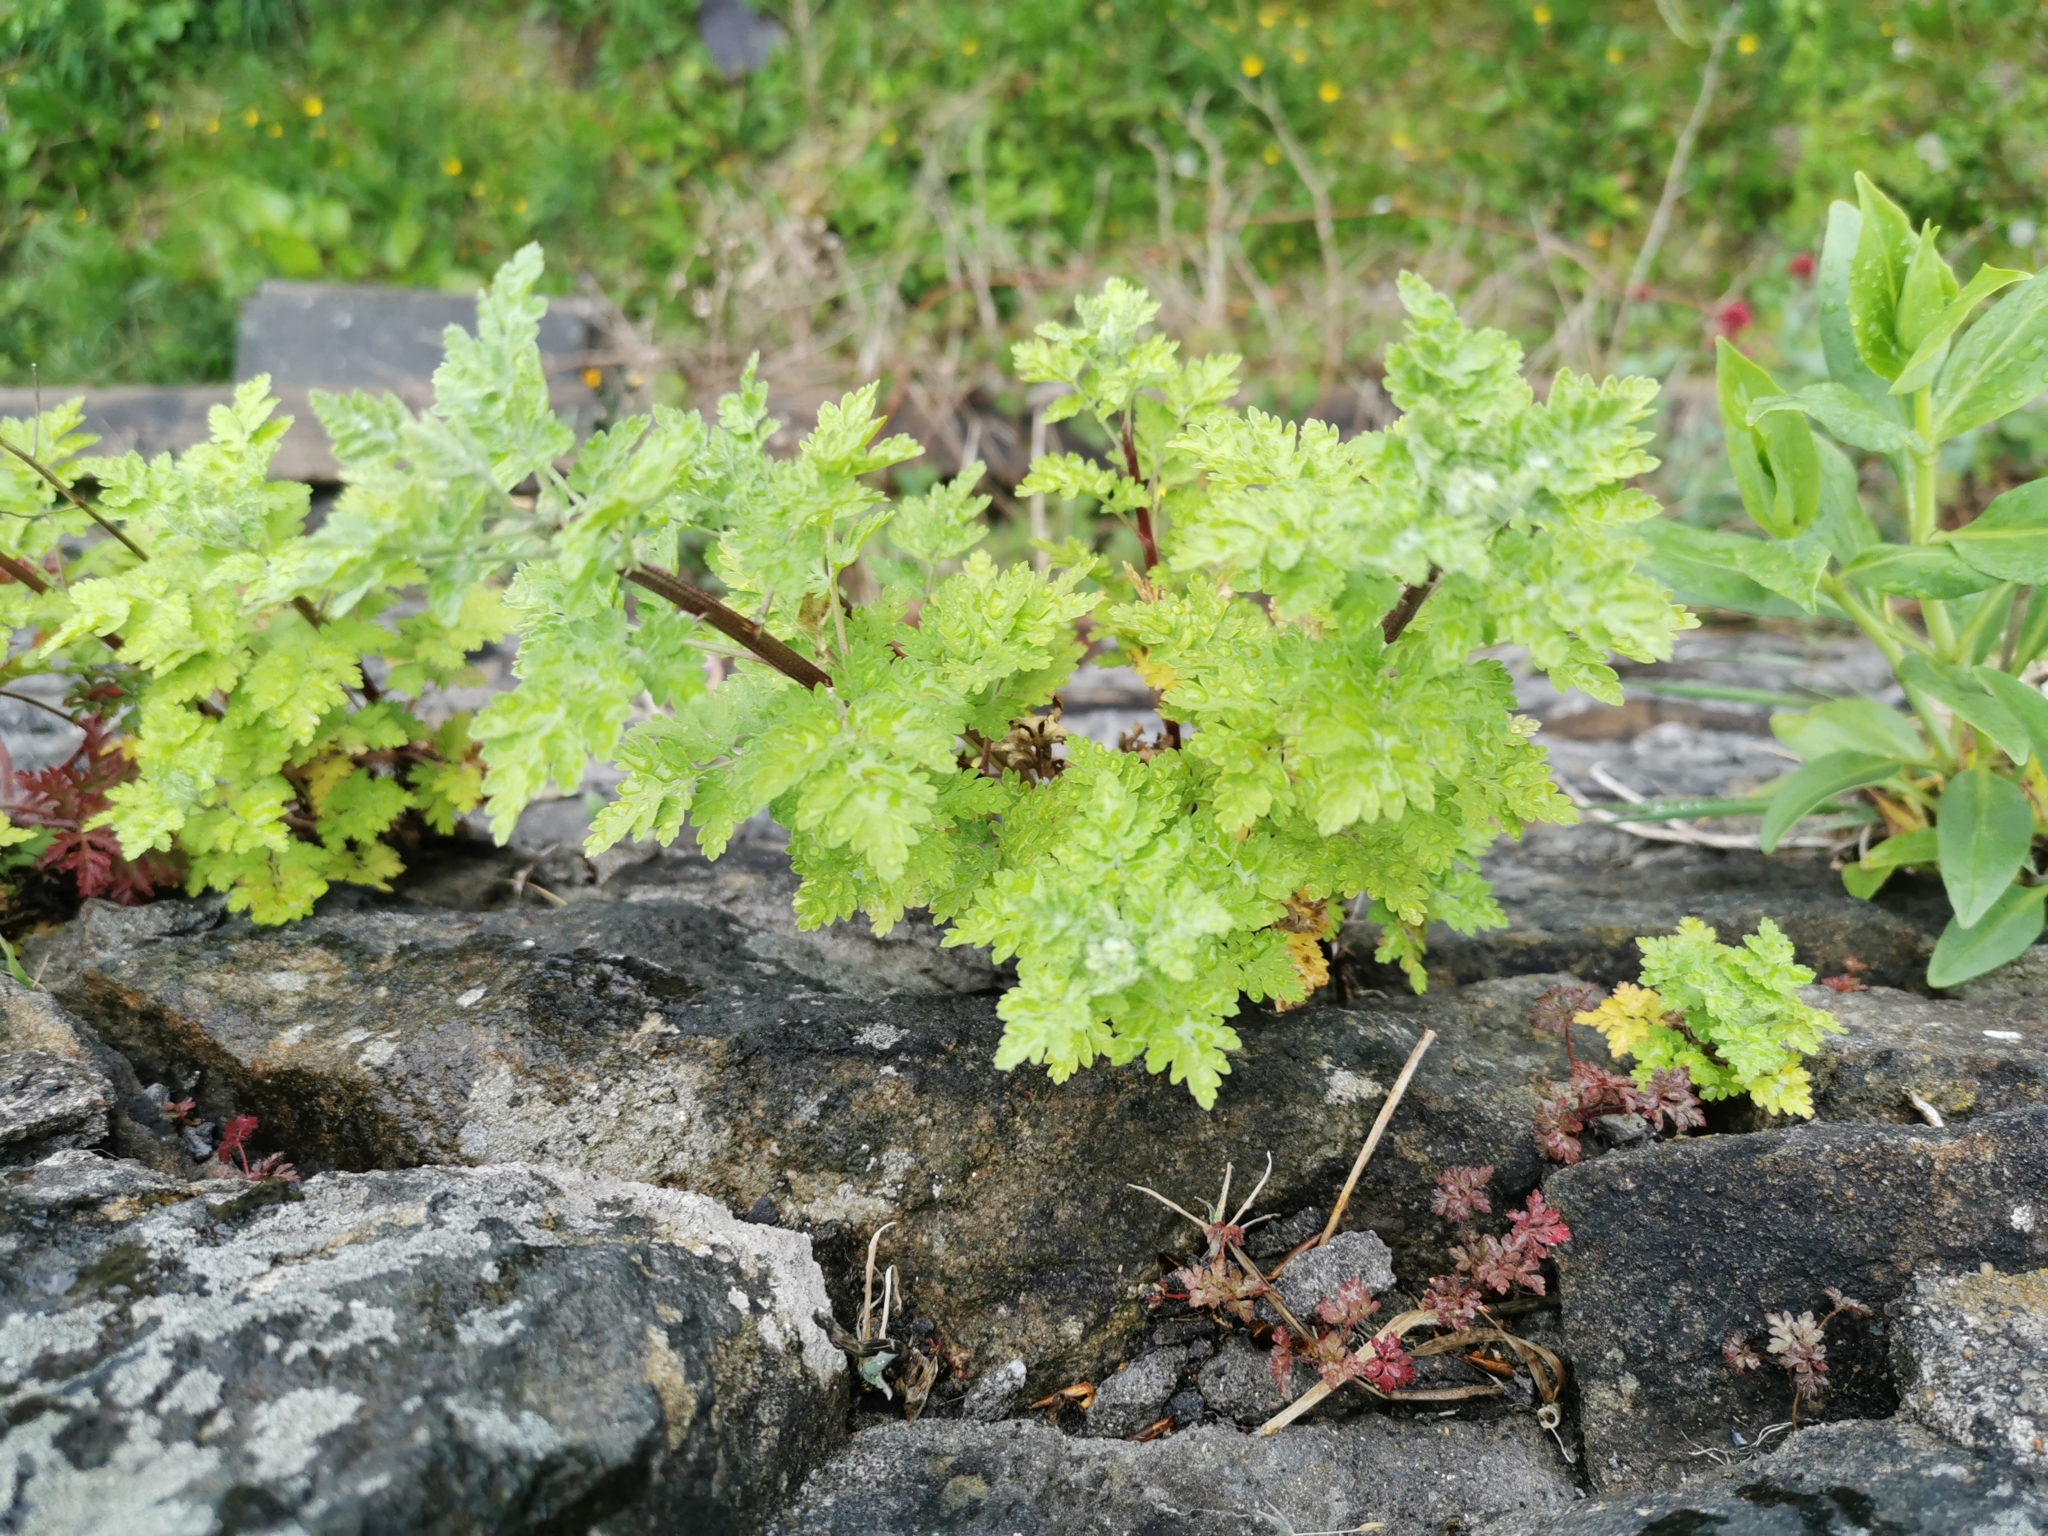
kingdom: Plantae
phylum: Tracheophyta
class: Magnoliopsida
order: Asterales
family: Asteraceae
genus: Tanacetum
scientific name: Tanacetum parthenium
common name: Feverfew
